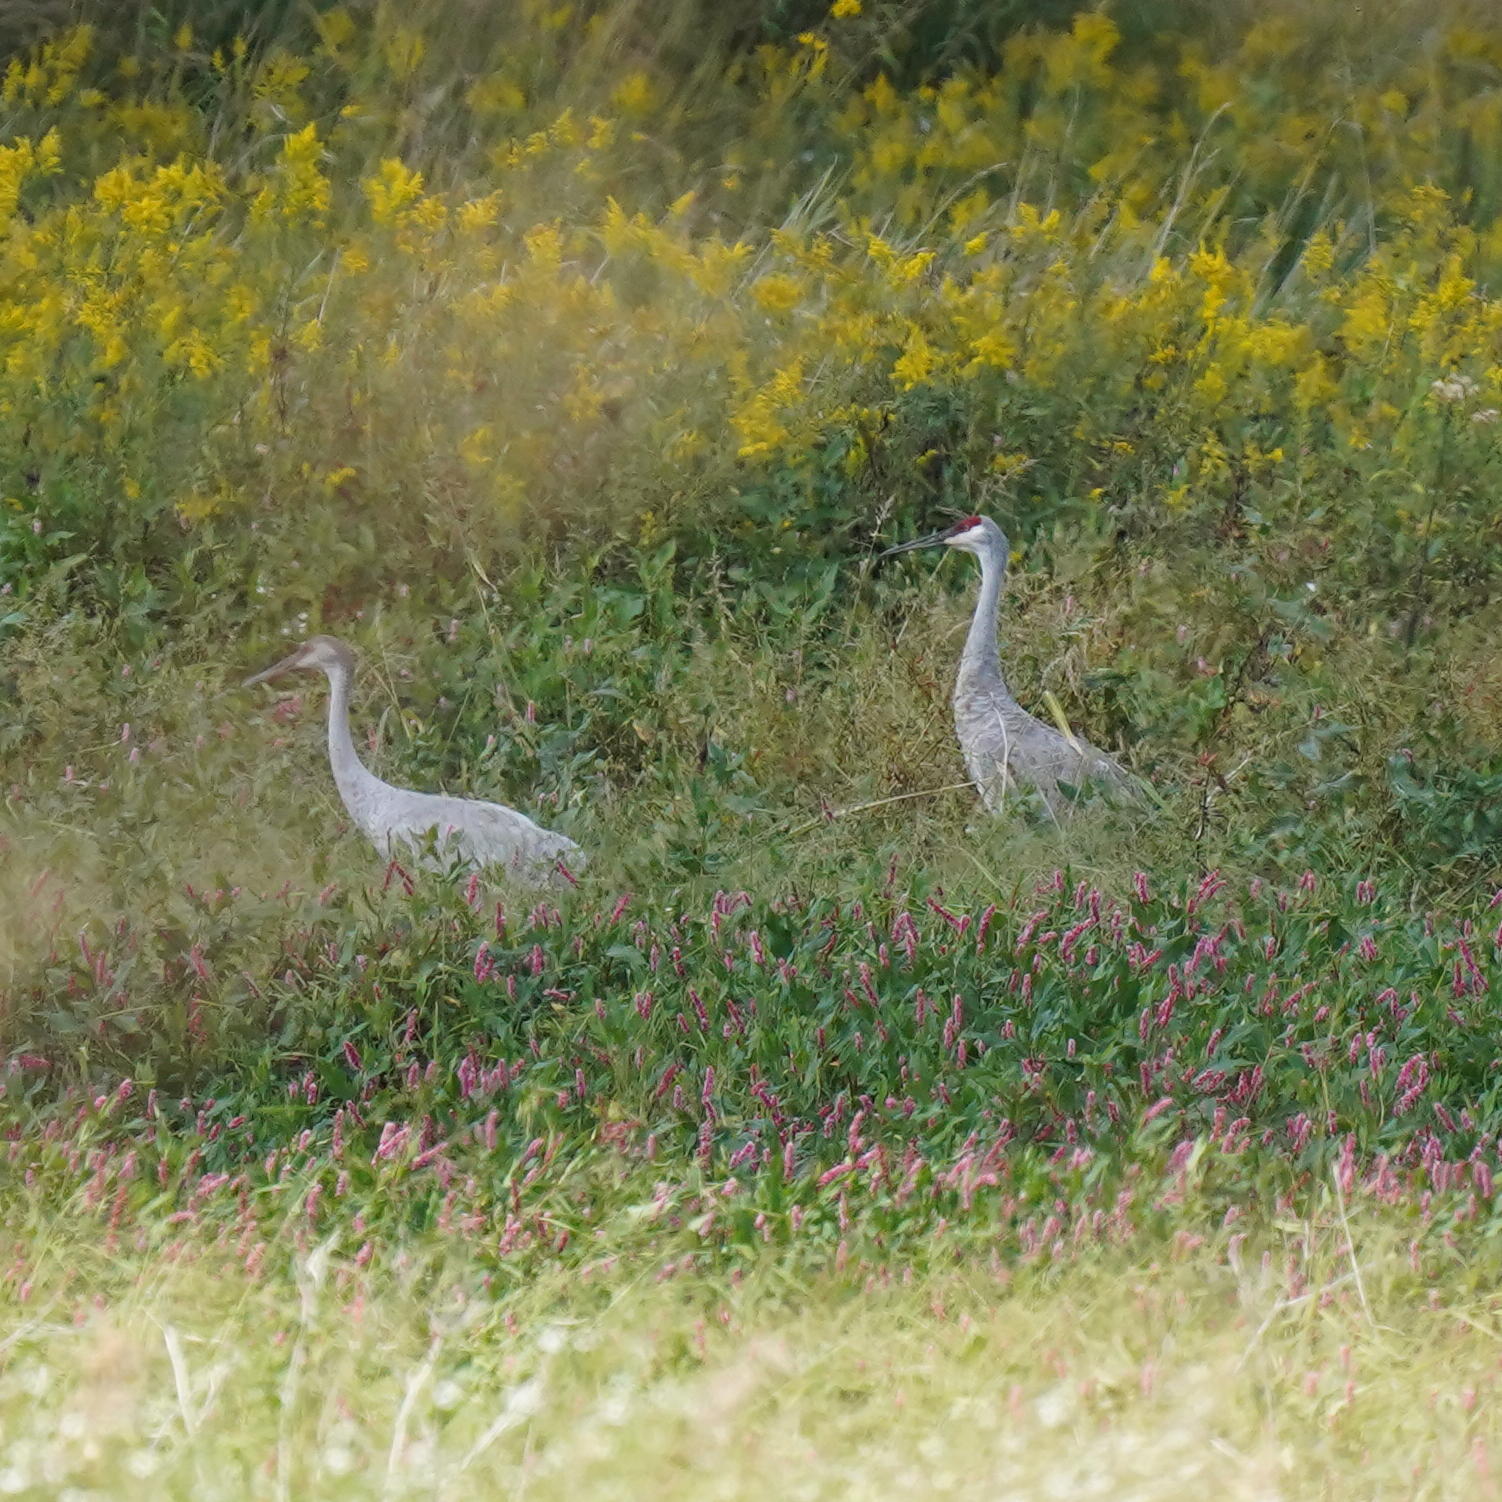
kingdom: Animalia
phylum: Chordata
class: Aves
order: Gruiformes
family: Gruidae
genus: Grus
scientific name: Grus canadensis
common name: Sandhill crane
